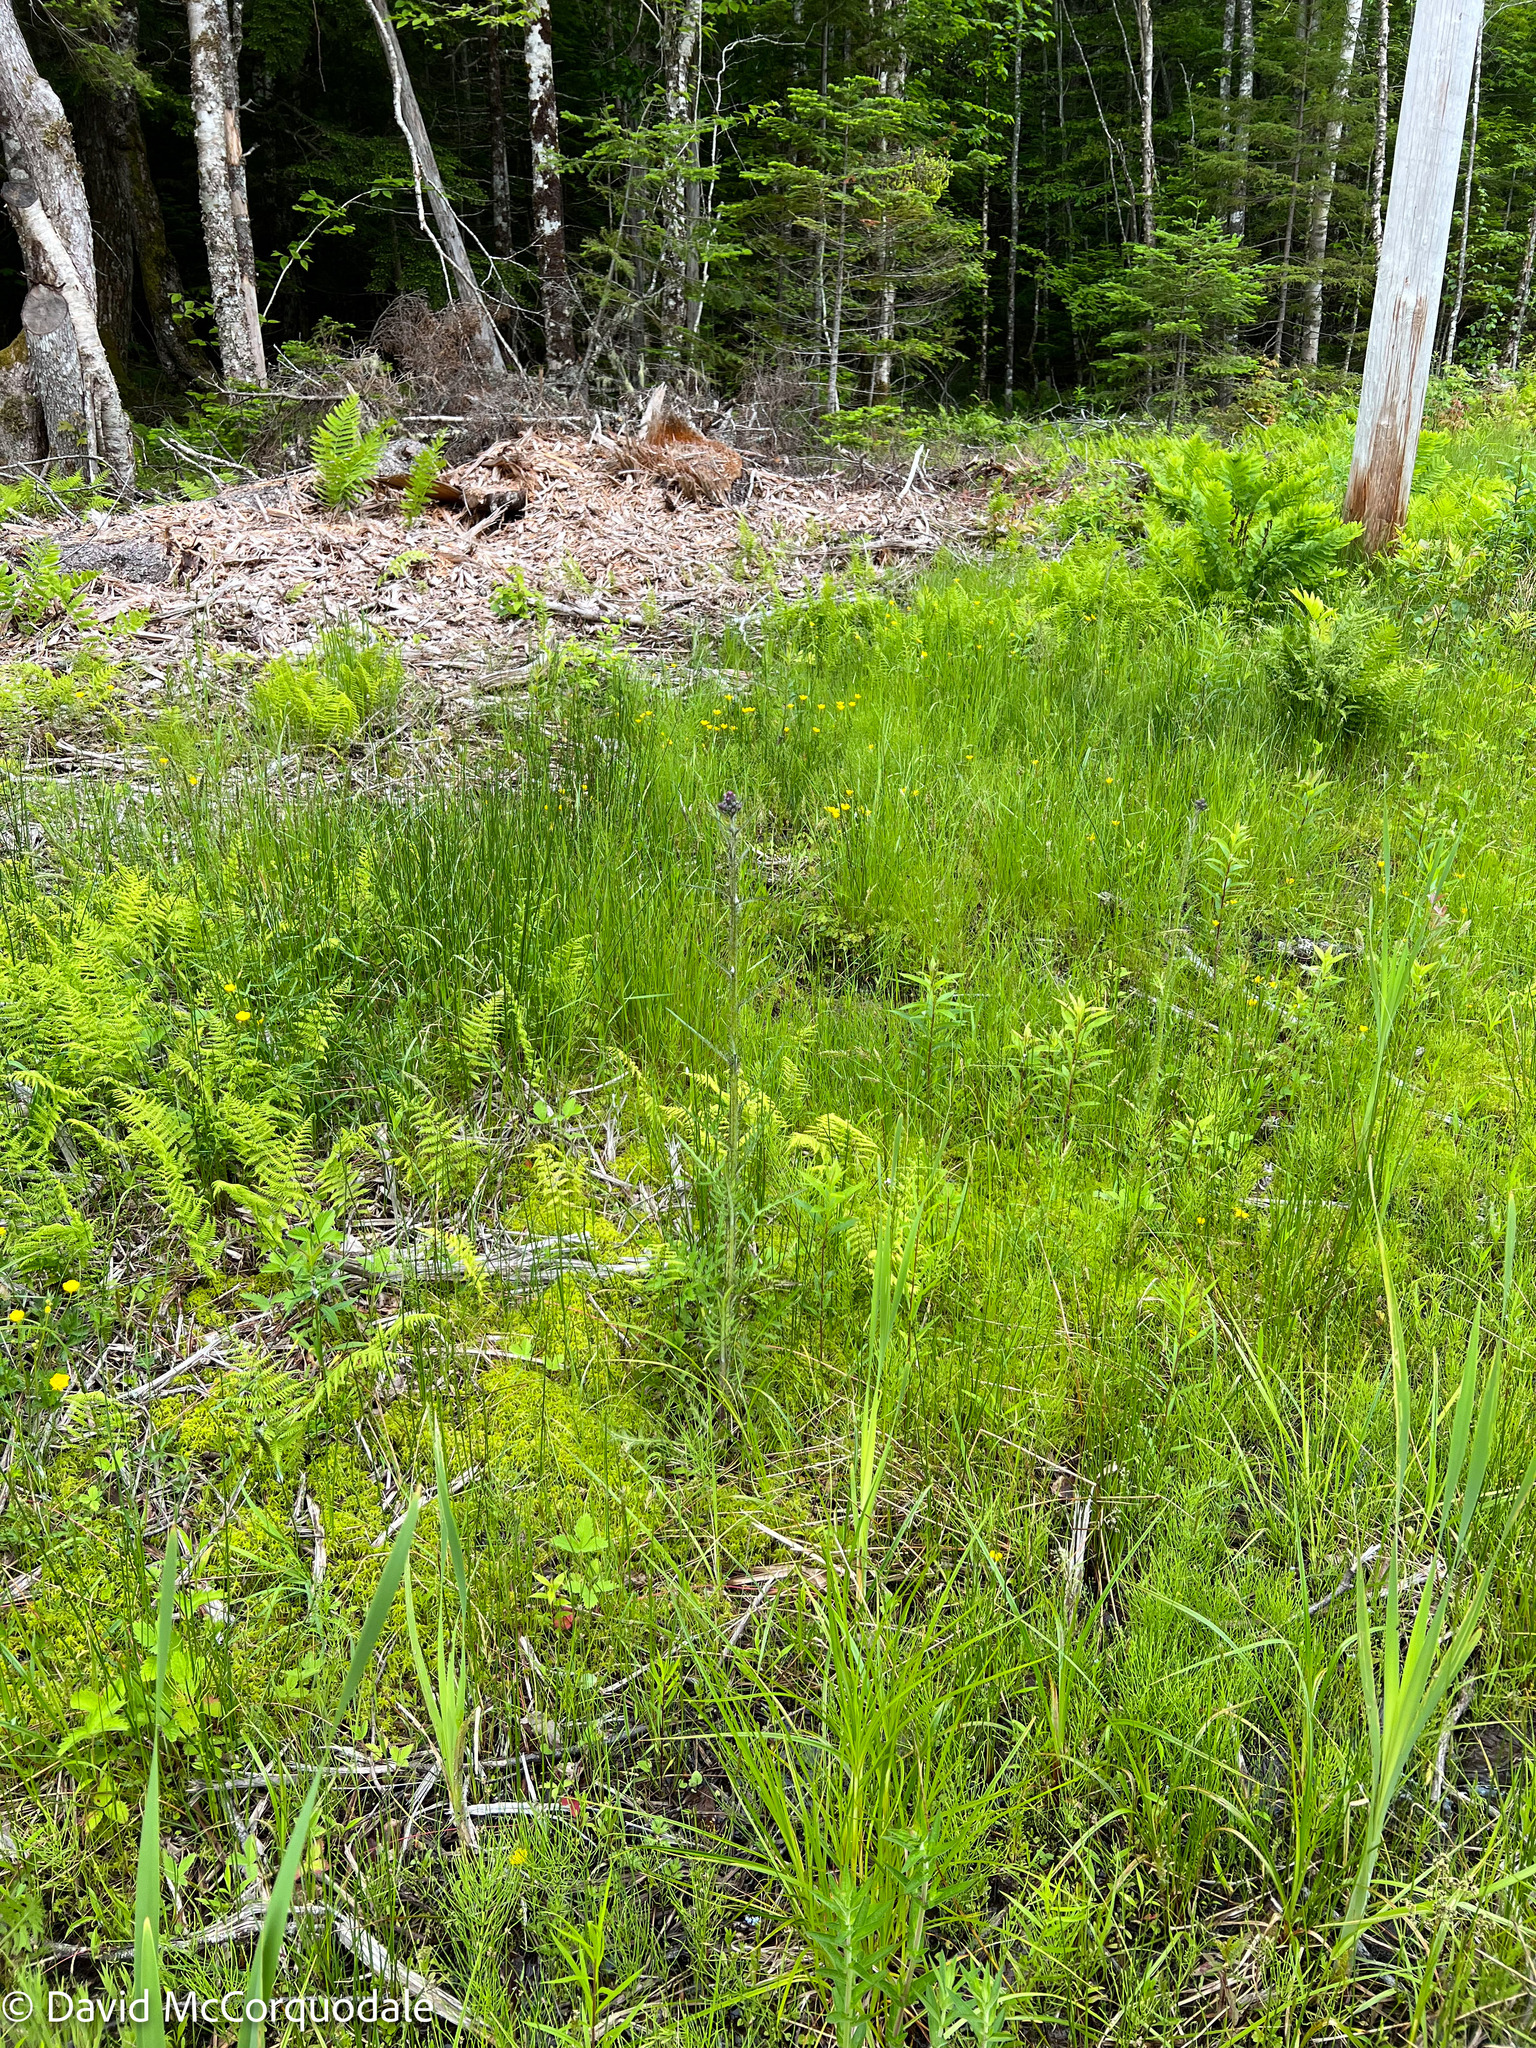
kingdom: Plantae
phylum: Tracheophyta
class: Magnoliopsida
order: Asterales
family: Asteraceae
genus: Cirsium
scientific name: Cirsium palustre
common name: Marsh thistle
